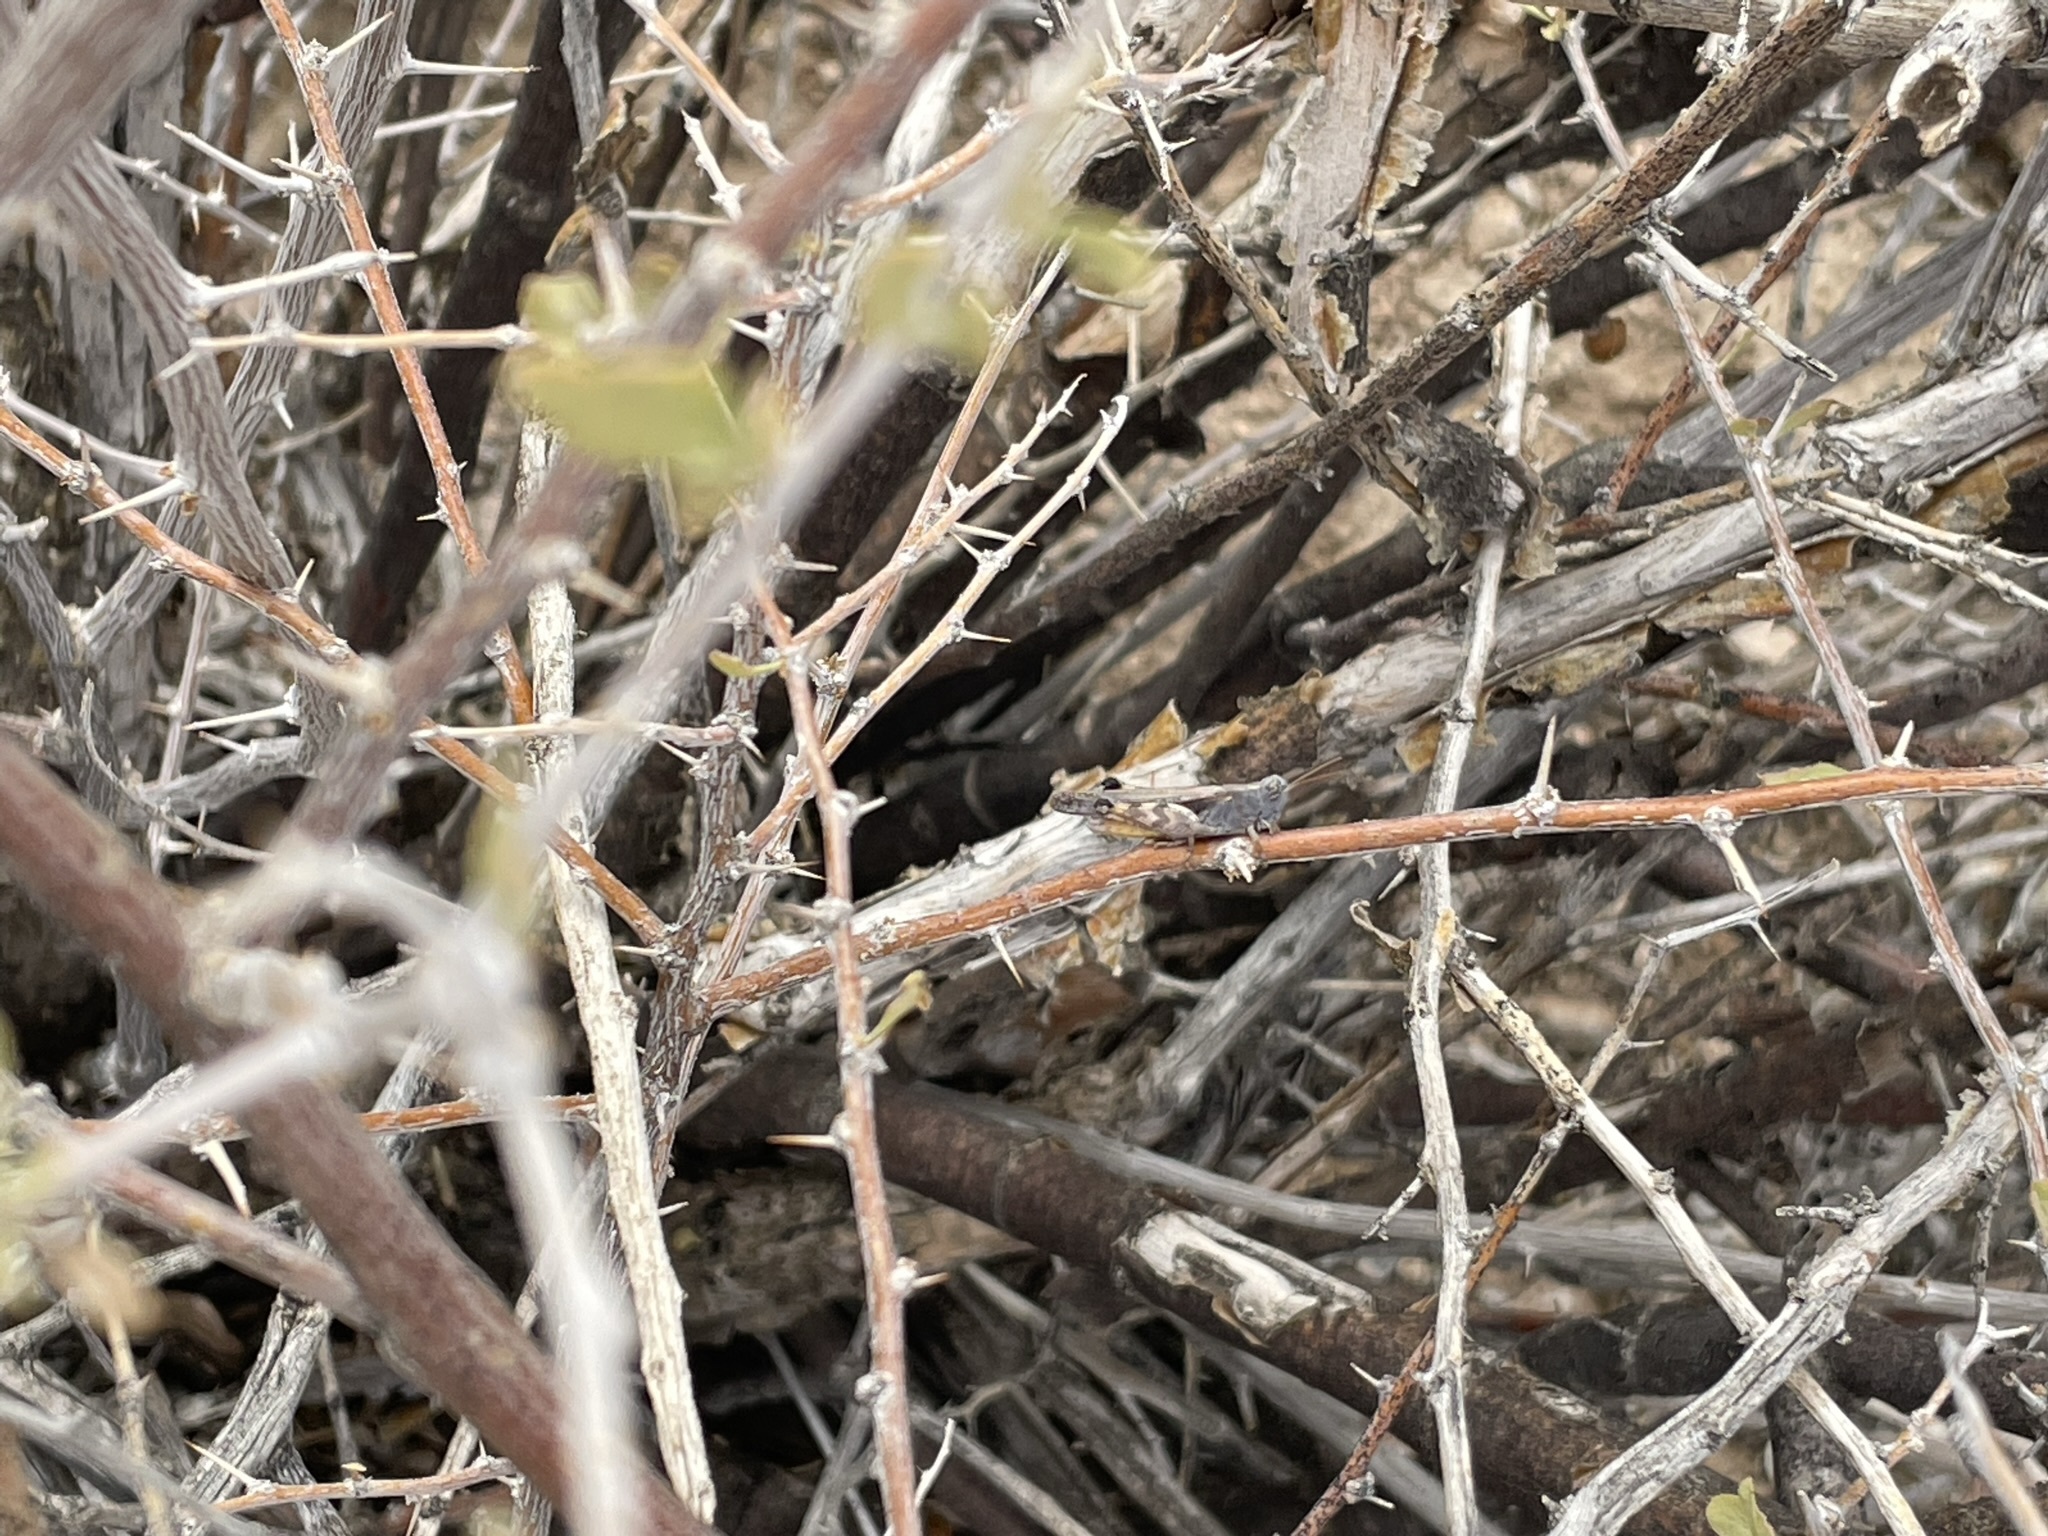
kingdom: Animalia
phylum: Arthropoda
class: Insecta
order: Orthoptera
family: Acrididae
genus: Ligurotettix
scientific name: Ligurotettix coquilletti
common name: Desert clicker grasshopper
